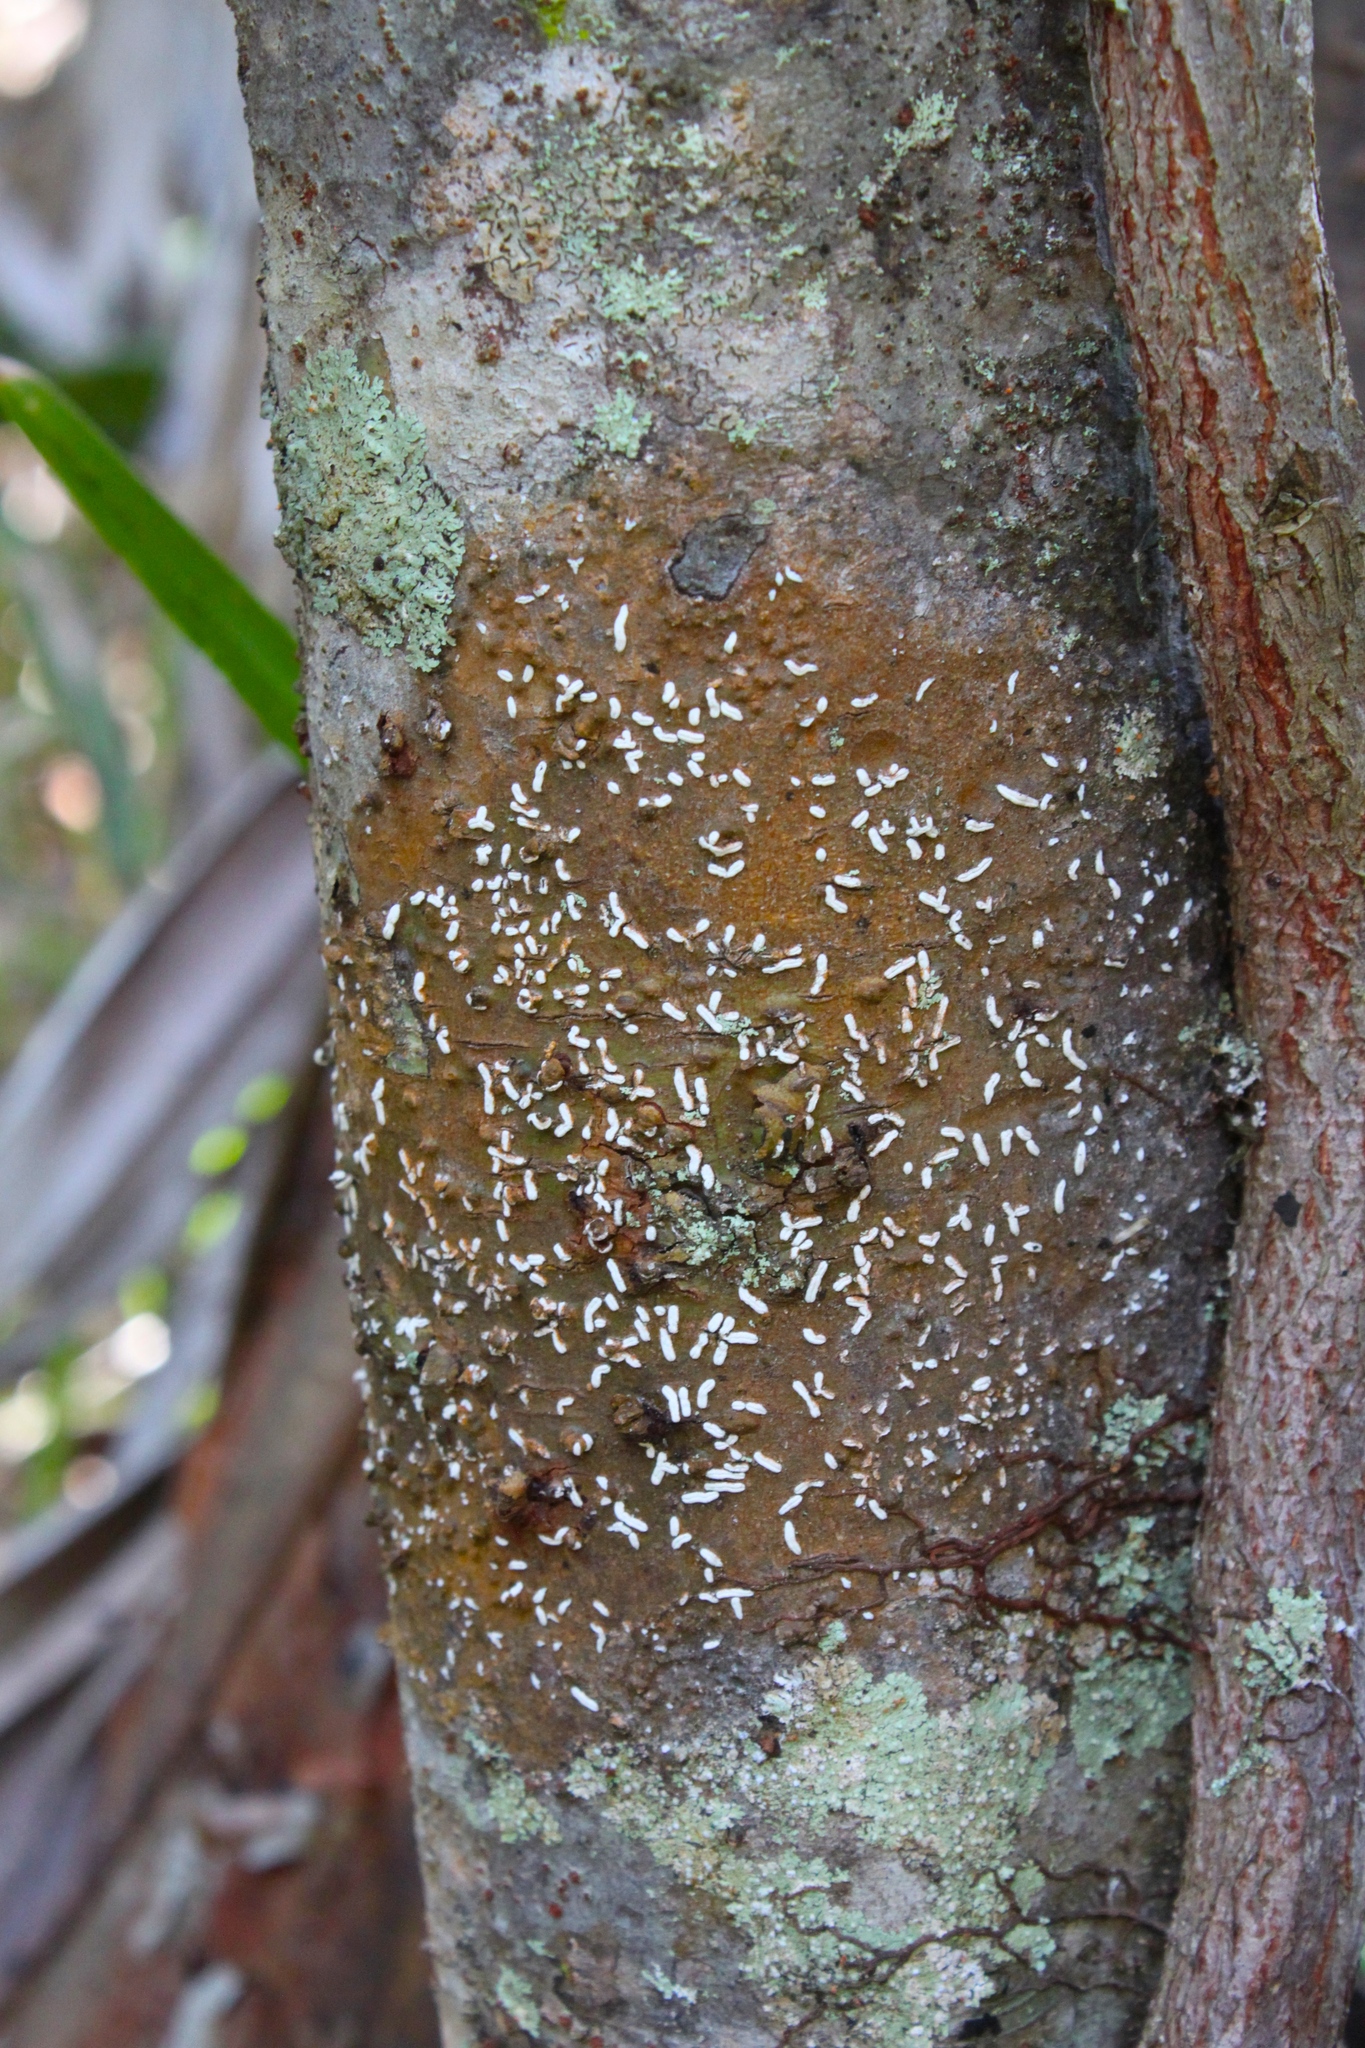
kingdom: Fungi
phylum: Ascomycota
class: Lecanoromycetes
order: Ostropales
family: Graphidaceae
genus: Dyplolabia
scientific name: Dyplolabia afzelii
